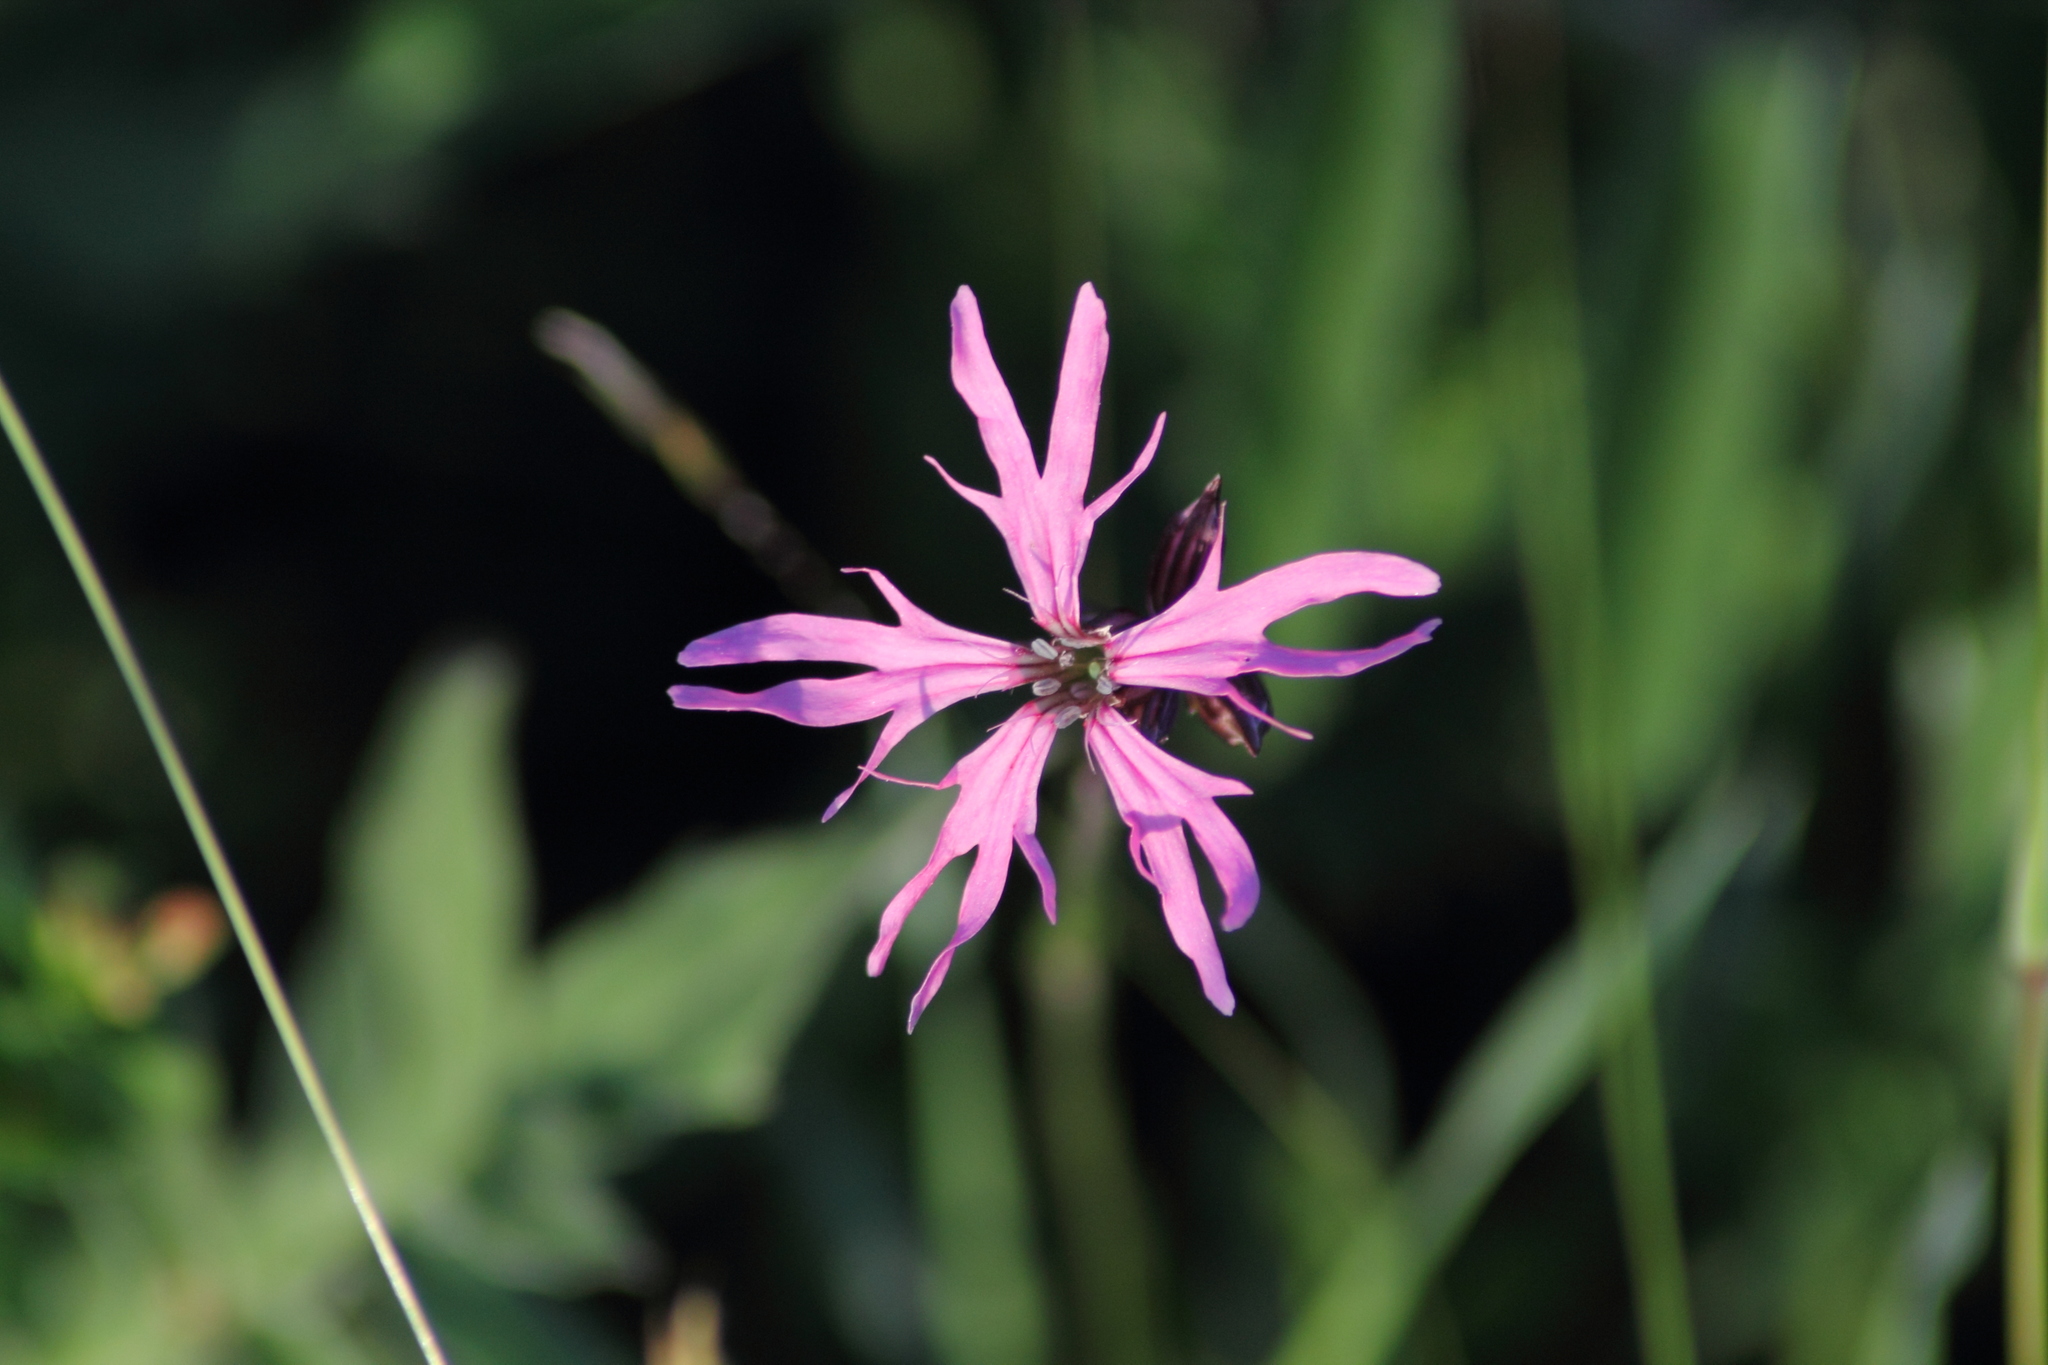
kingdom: Plantae
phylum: Tracheophyta
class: Magnoliopsida
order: Caryophyllales
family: Caryophyllaceae
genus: Silene
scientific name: Silene flos-cuculi
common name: Ragged-robin
